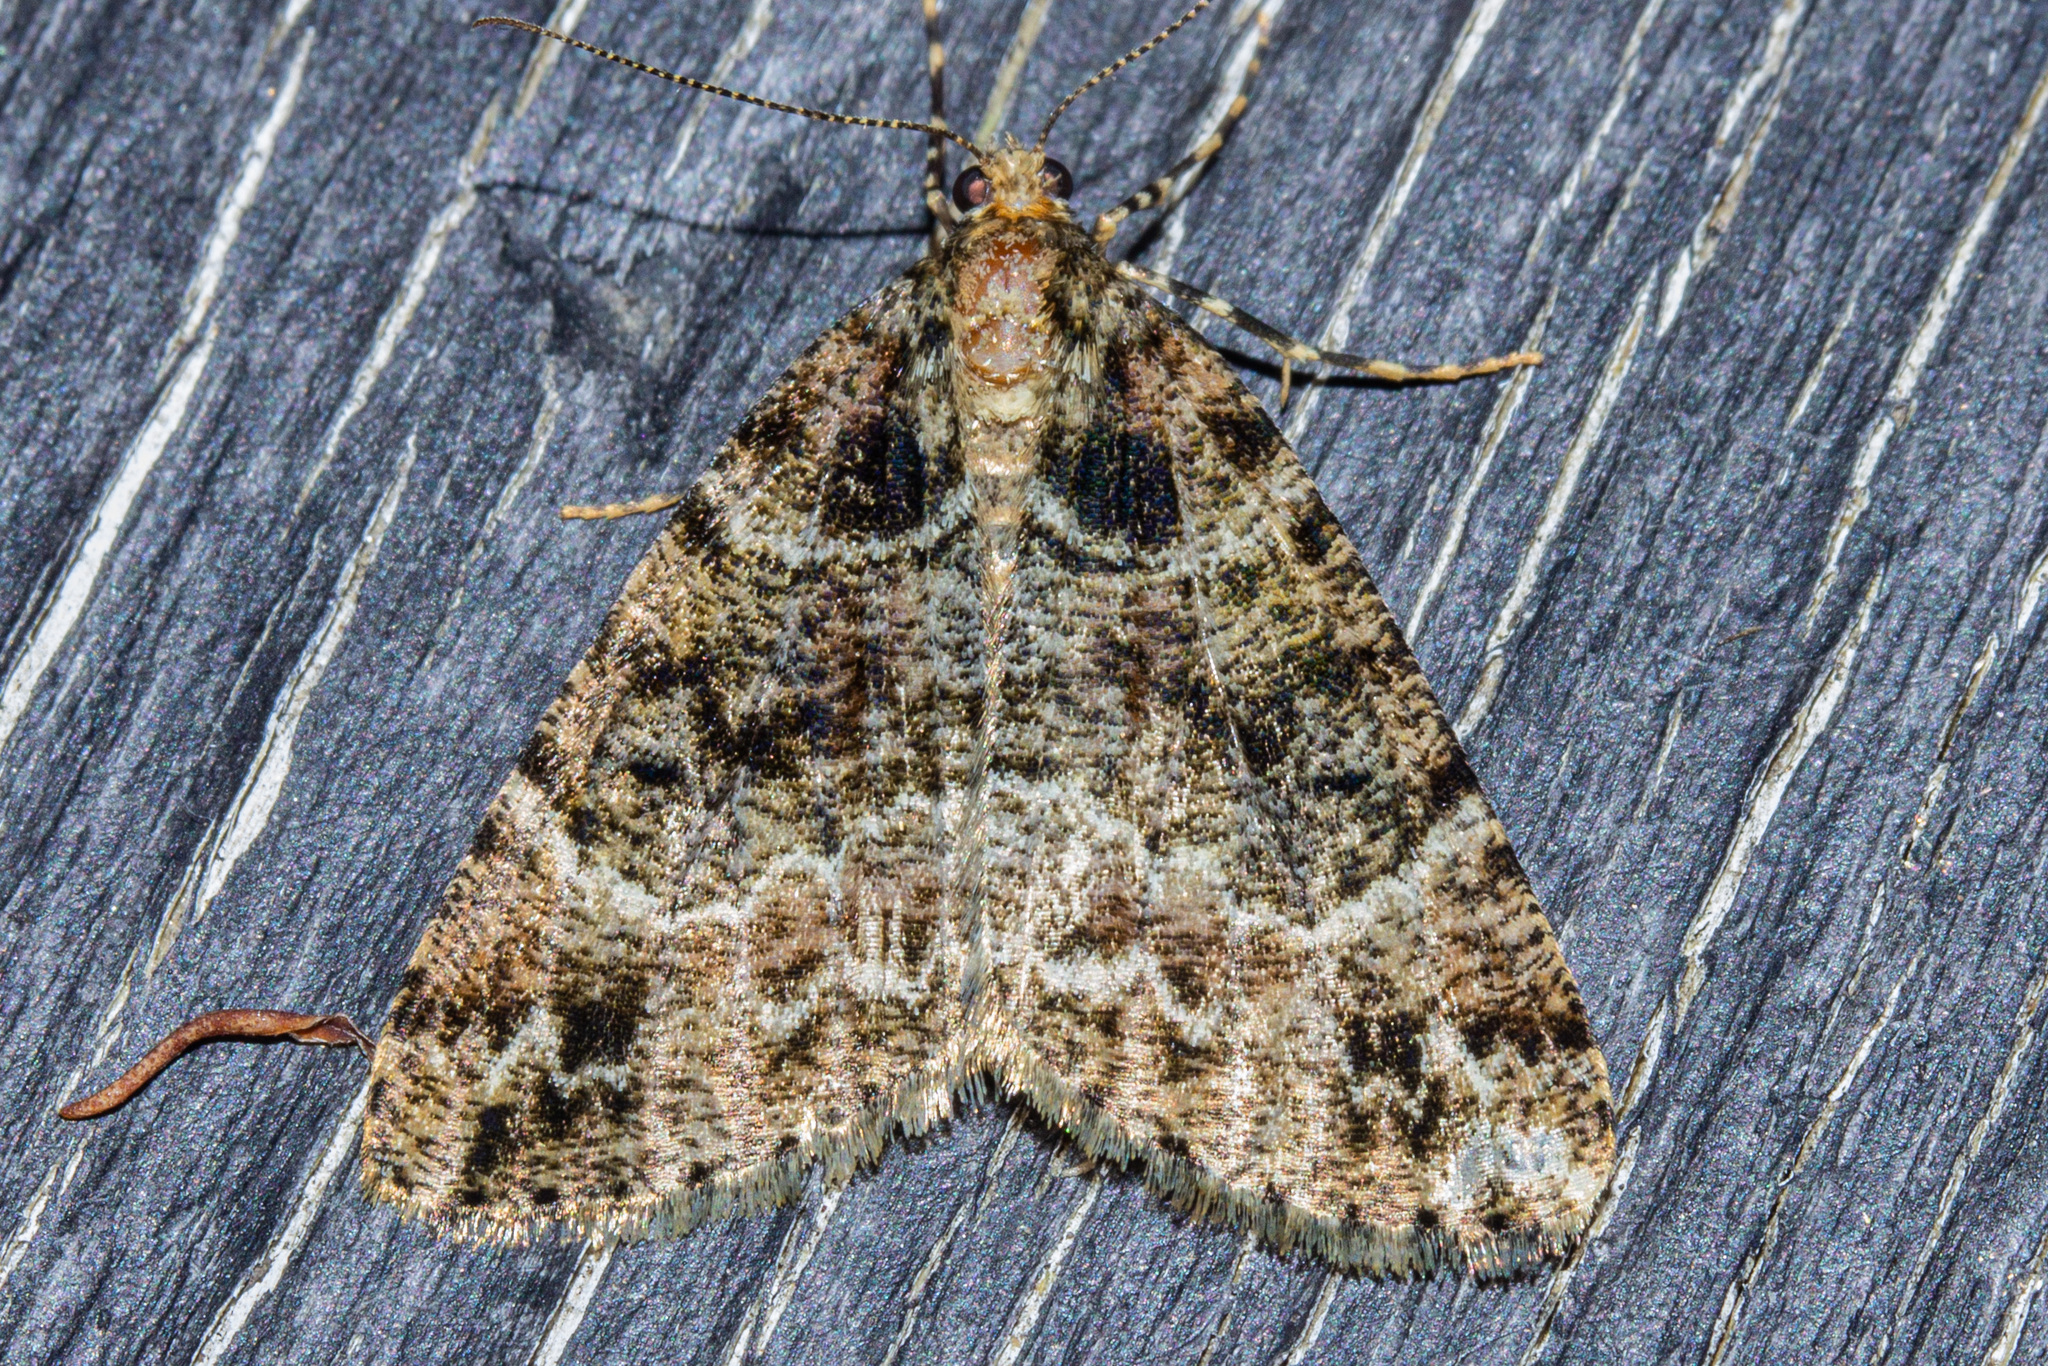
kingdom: Animalia
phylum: Arthropoda
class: Insecta
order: Lepidoptera
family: Geometridae
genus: Pseudocoremia
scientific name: Pseudocoremia productata
